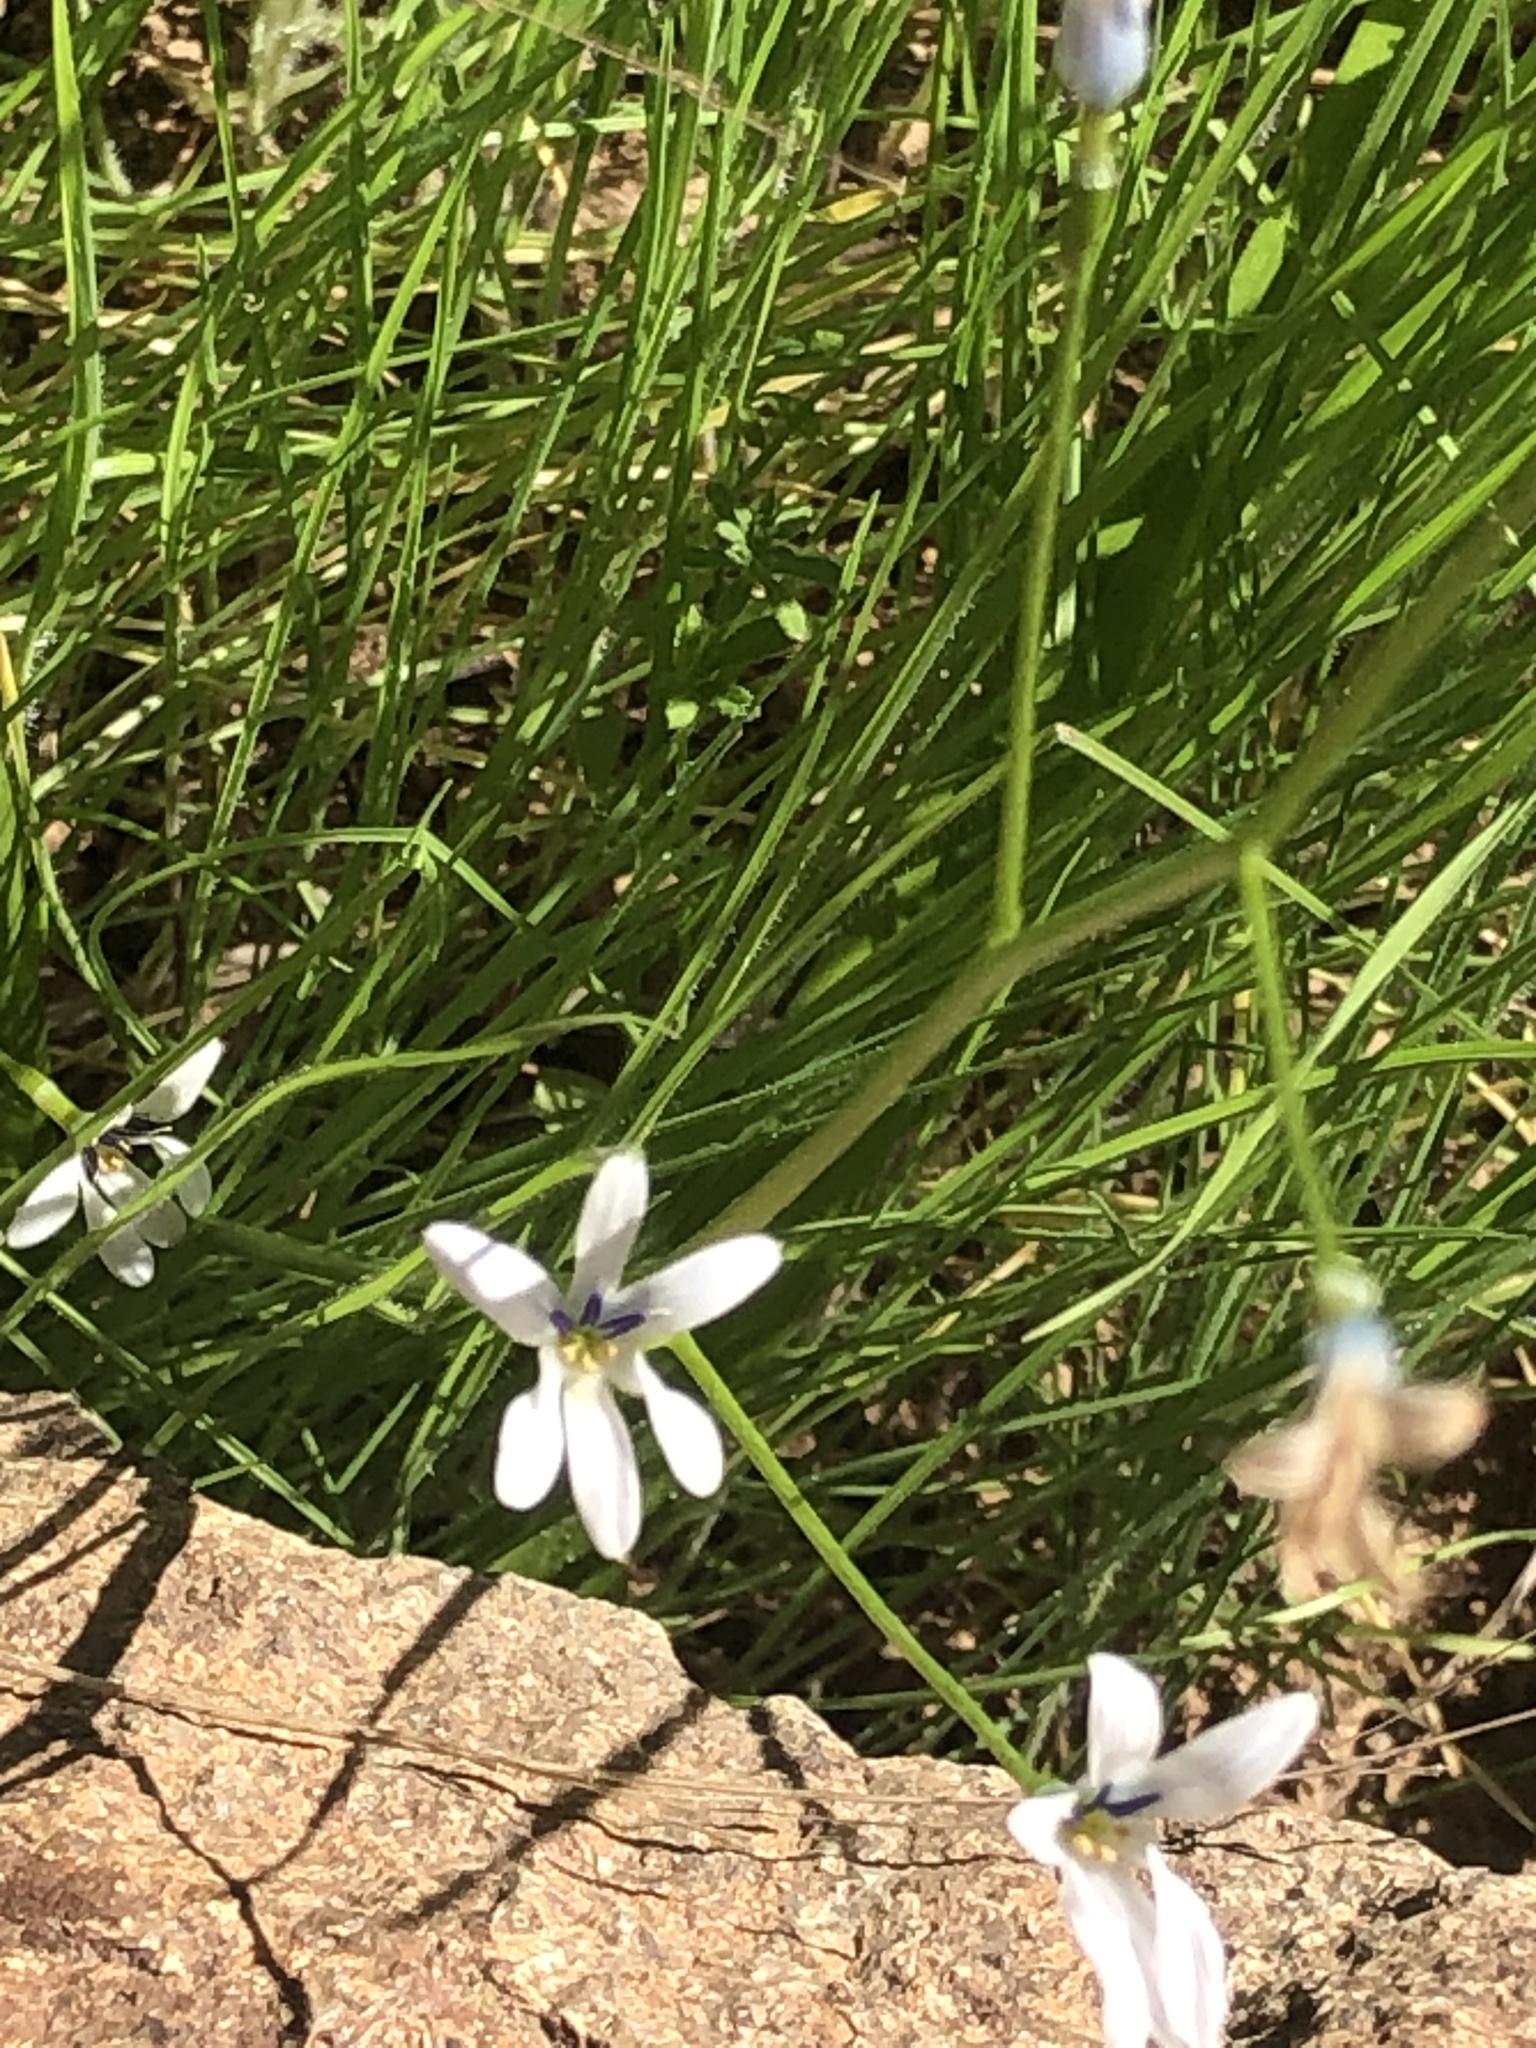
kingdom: Plantae
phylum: Tracheophyta
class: Liliopsida
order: Asparagales
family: Tecophilaeaceae
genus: Tecophilaea
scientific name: Tecophilaea violiflora
